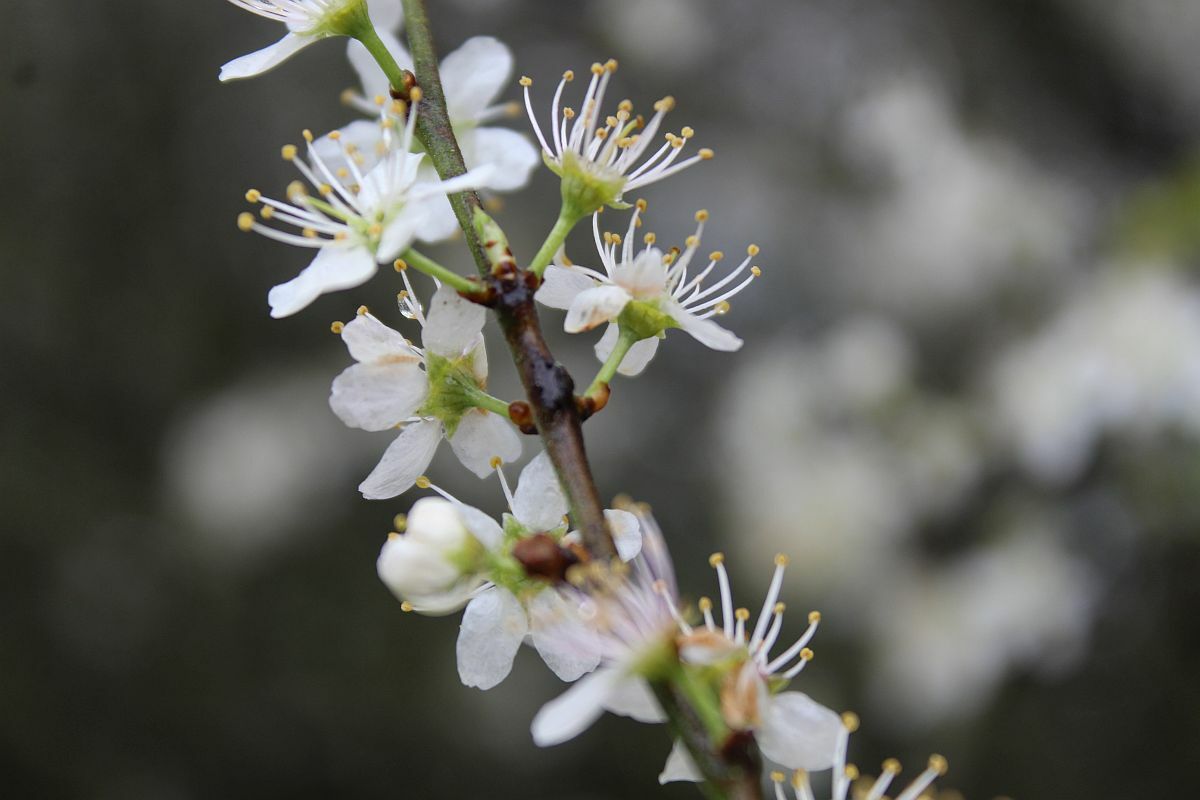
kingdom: Plantae
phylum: Tracheophyta
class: Magnoliopsida
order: Rosales
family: Rosaceae
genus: Prunus
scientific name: Prunus spinosa
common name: Blackthorn
